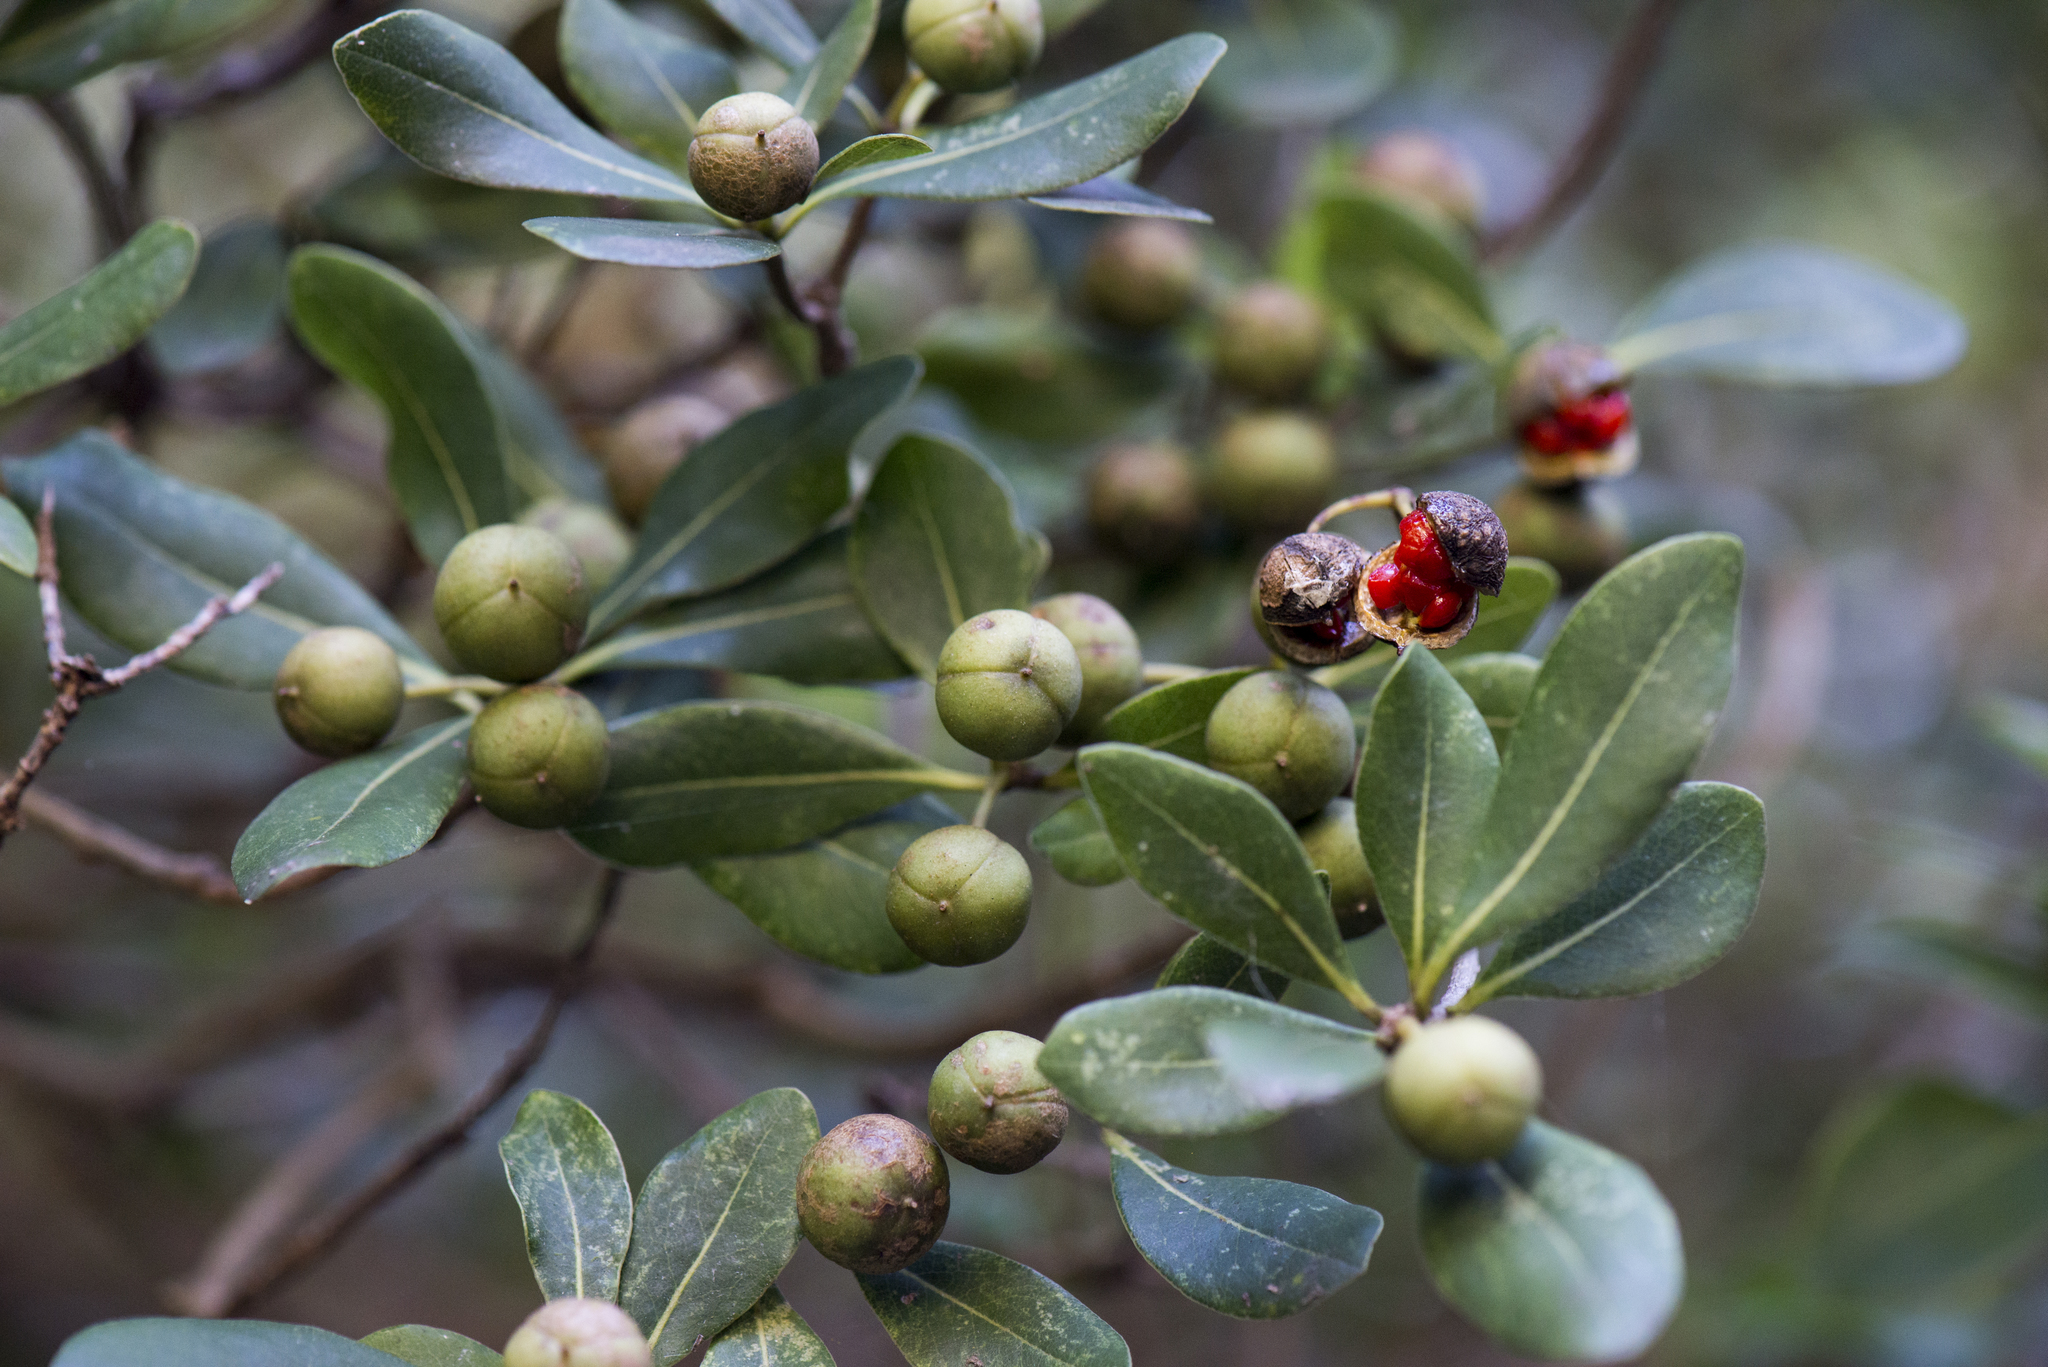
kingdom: Plantae
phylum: Tracheophyta
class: Magnoliopsida
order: Apiales
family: Pittosporaceae
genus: Pittosporum
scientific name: Pittosporum tobira
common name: Japanese cheesewood
